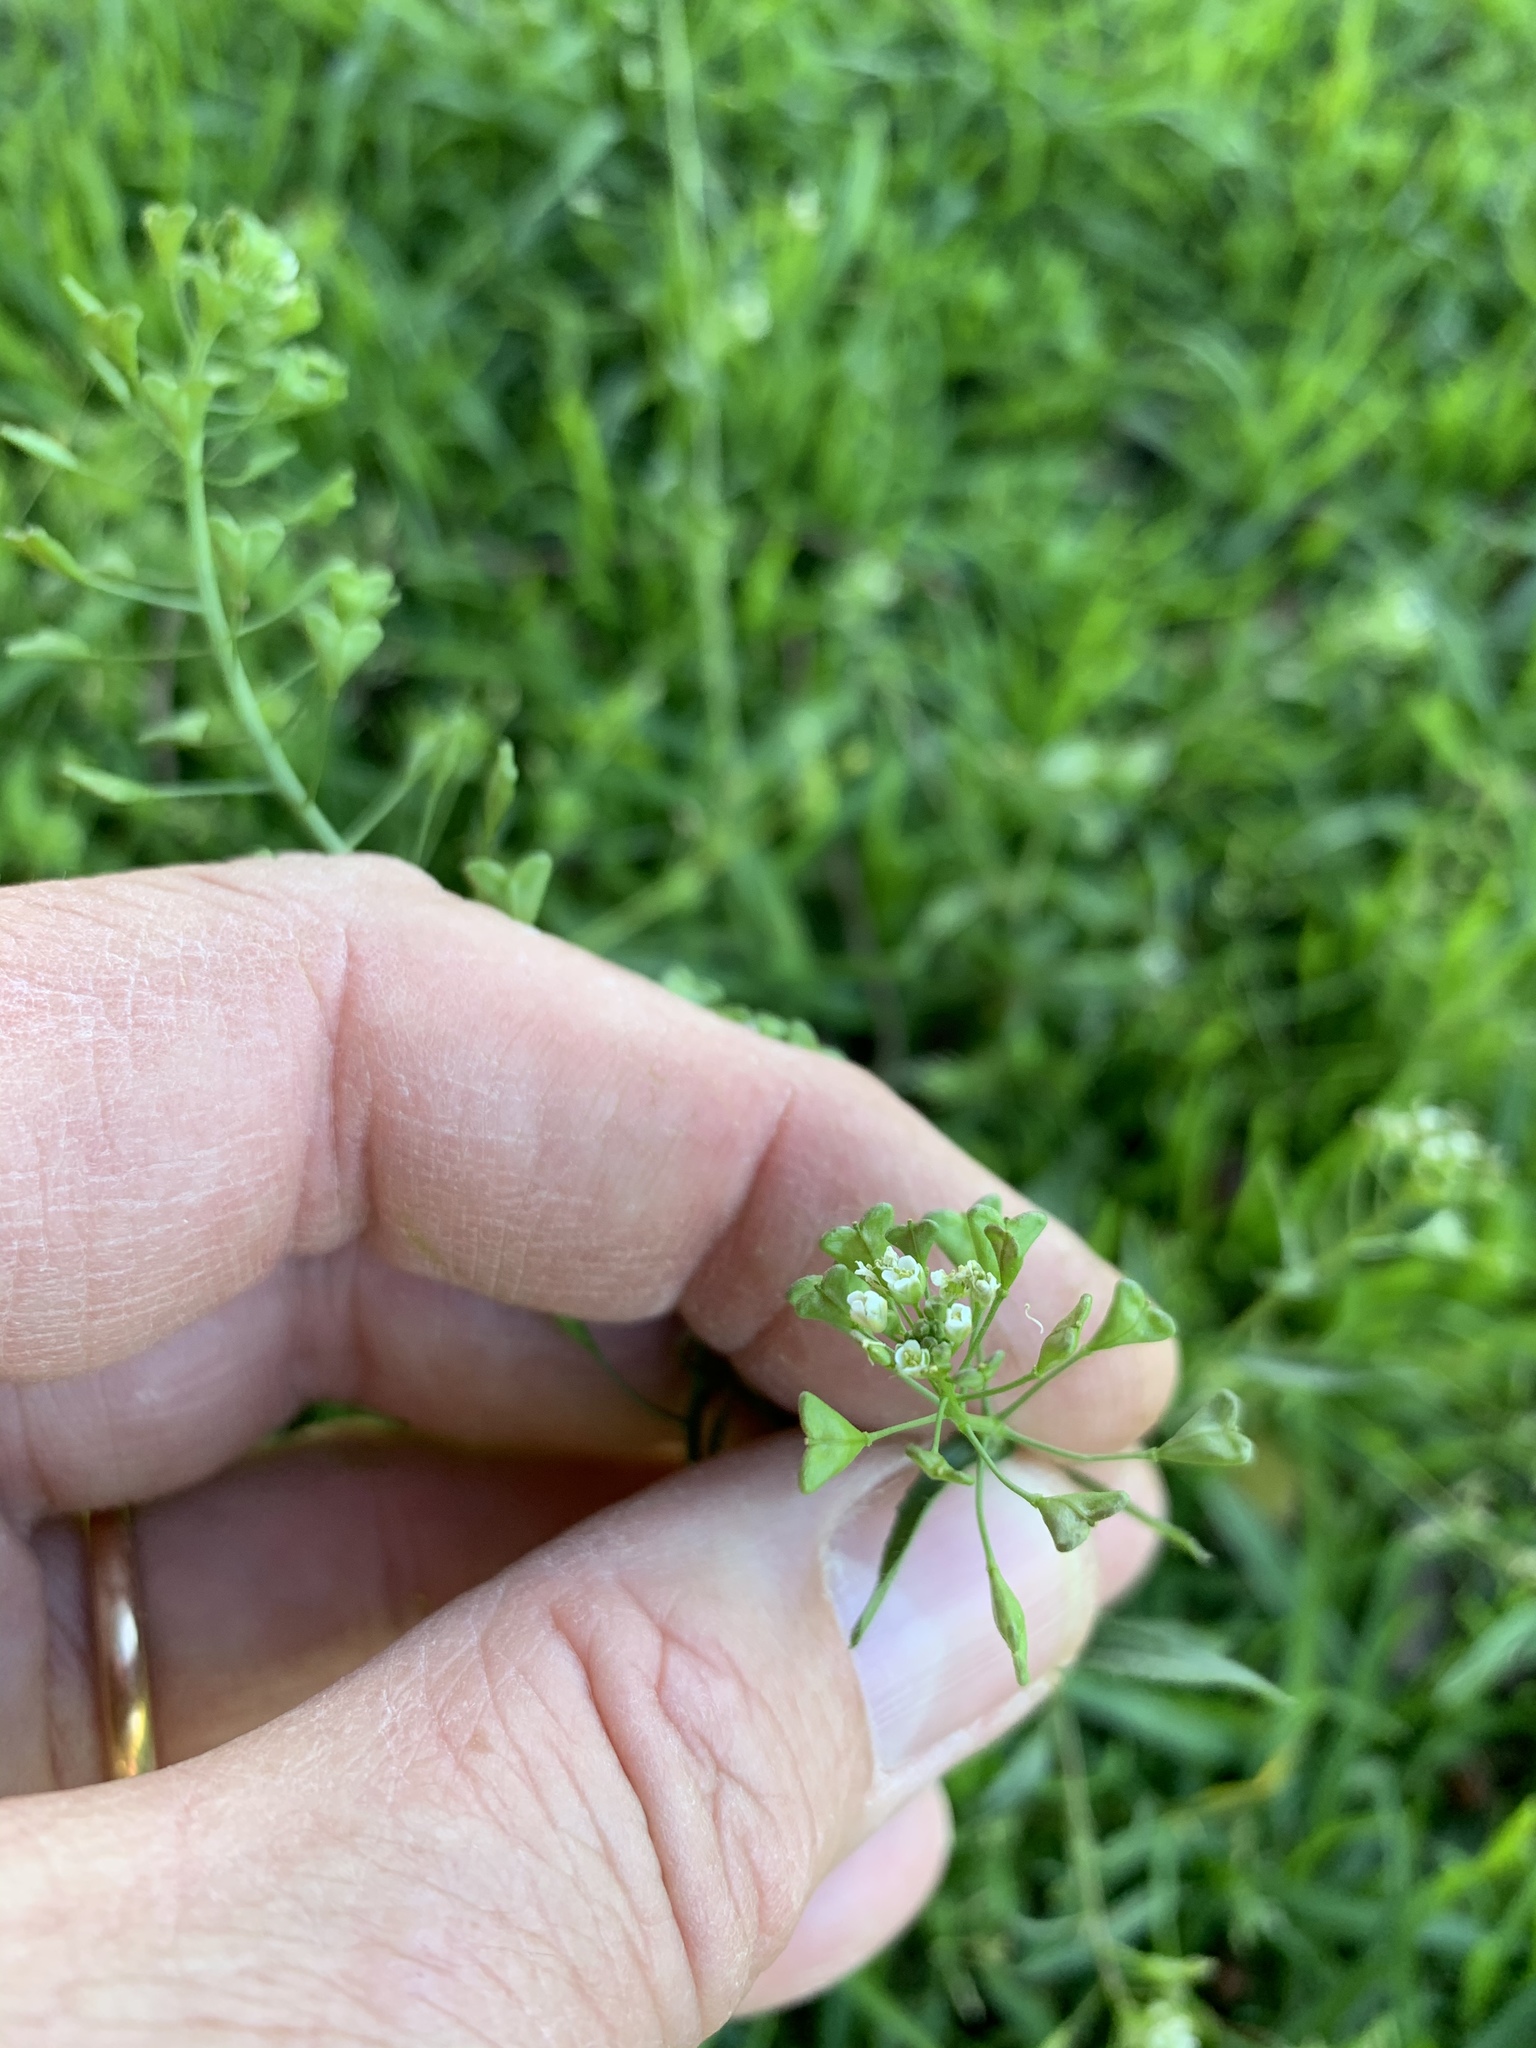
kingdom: Plantae
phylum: Tracheophyta
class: Magnoliopsida
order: Brassicales
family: Brassicaceae
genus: Capsella
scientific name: Capsella bursa-pastoris
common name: Shepherd's purse
